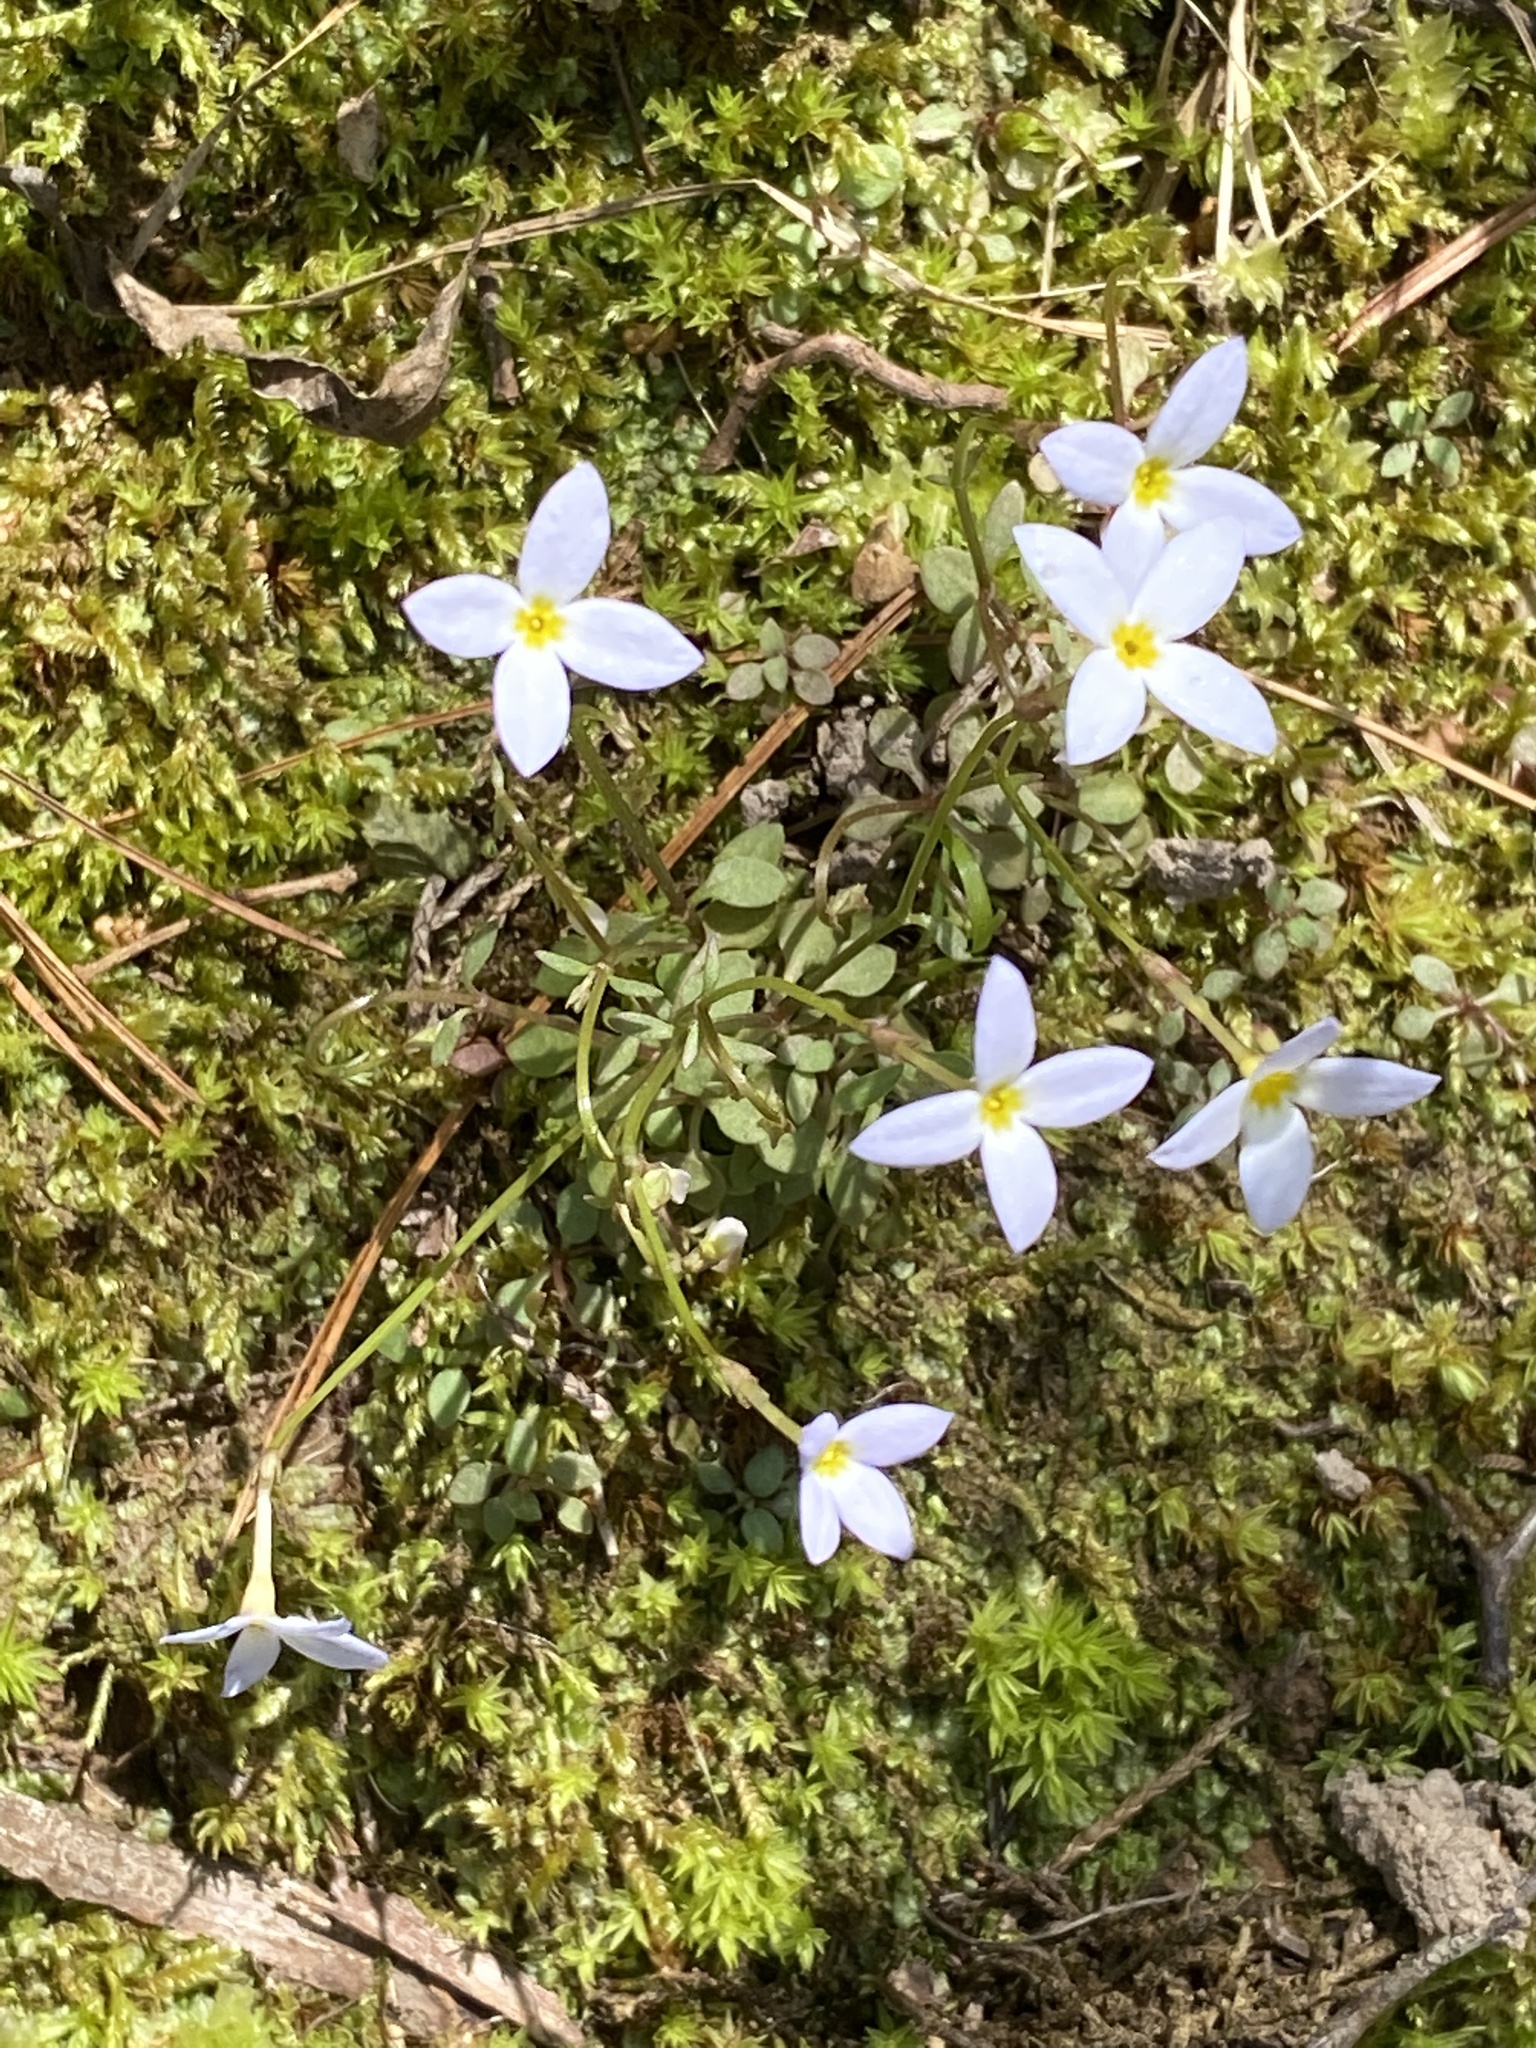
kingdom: Plantae
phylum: Tracheophyta
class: Magnoliopsida
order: Gentianales
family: Rubiaceae
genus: Houstonia
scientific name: Houstonia caerulea
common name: Bluets
